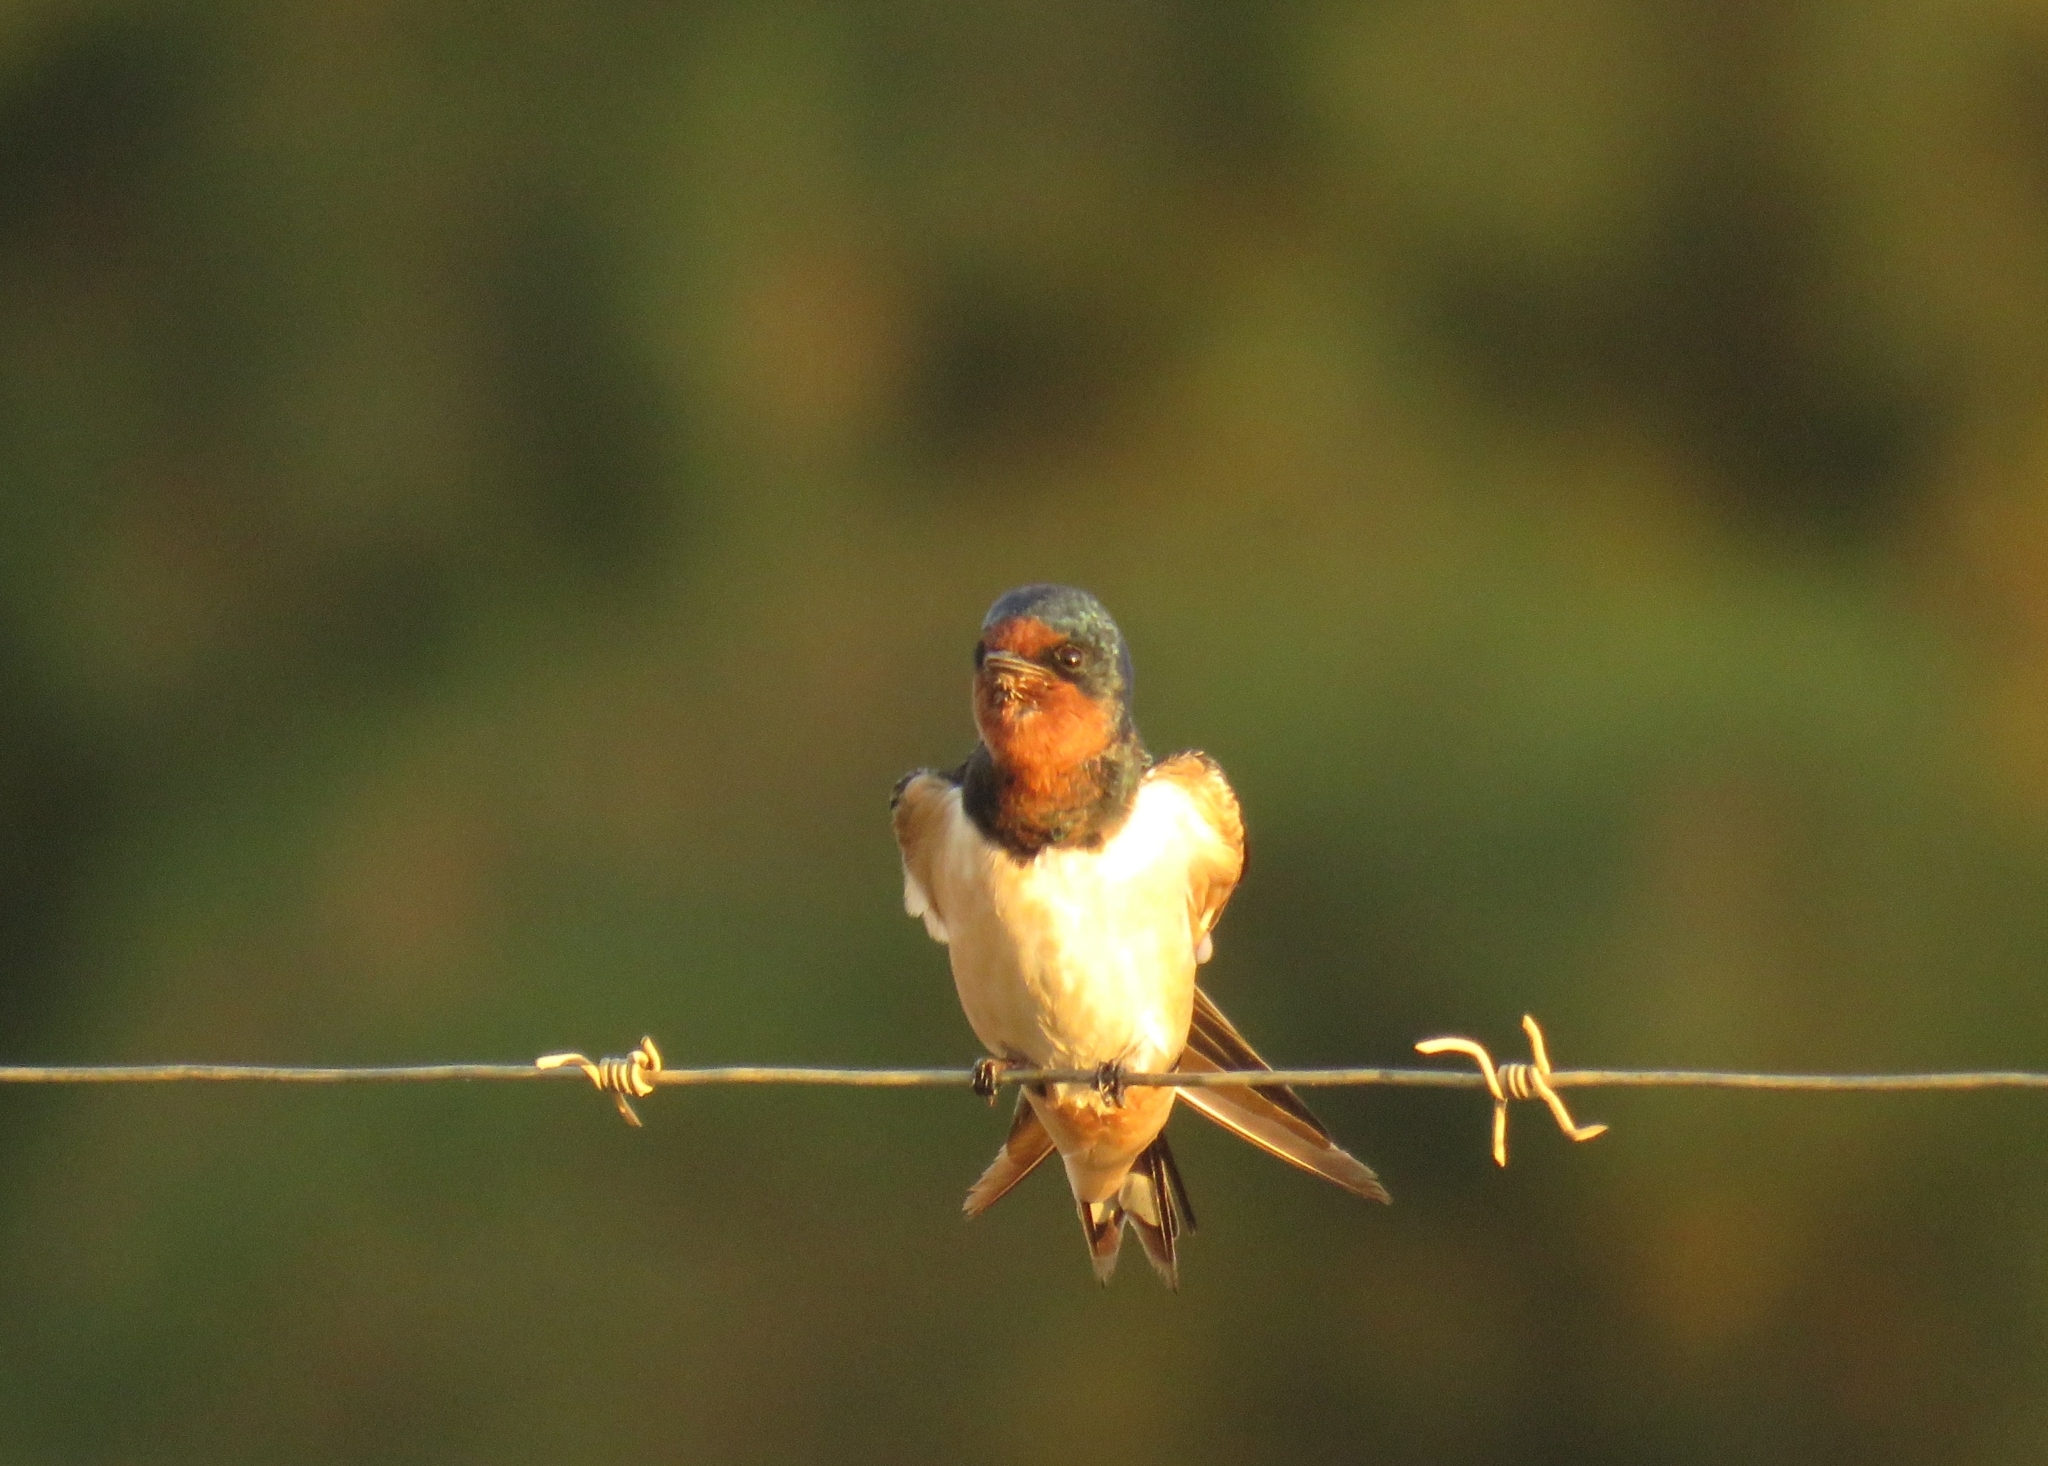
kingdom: Animalia
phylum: Chordata
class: Aves
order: Passeriformes
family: Hirundinidae
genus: Hirundo
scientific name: Hirundo rustica
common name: Barn swallow
